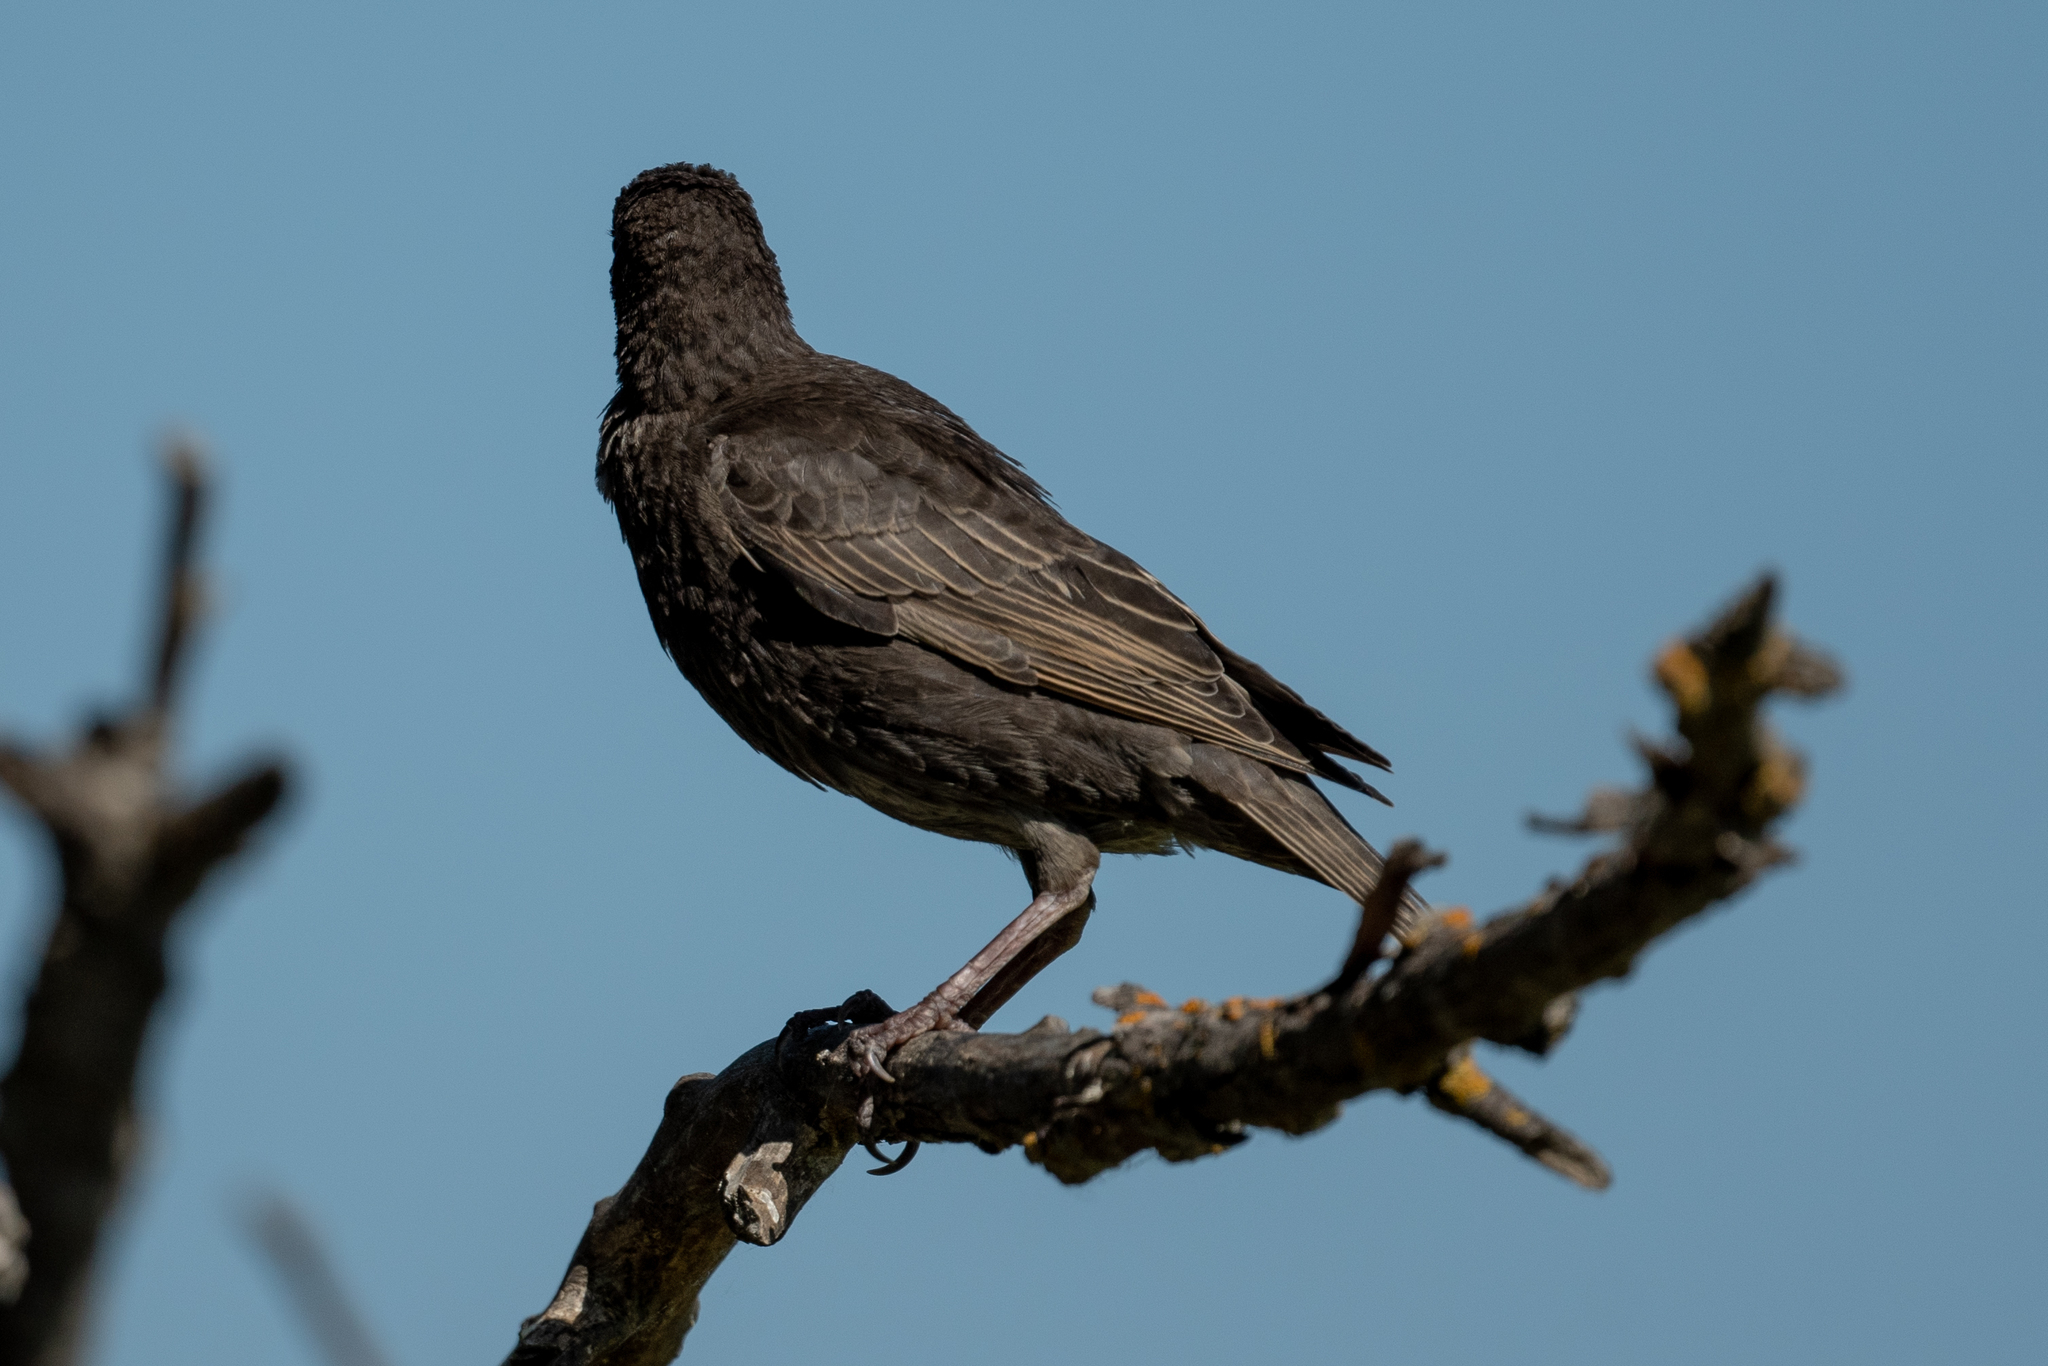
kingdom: Animalia
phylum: Chordata
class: Aves
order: Passeriformes
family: Sturnidae
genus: Sturnus
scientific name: Sturnus vulgaris
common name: Common starling
